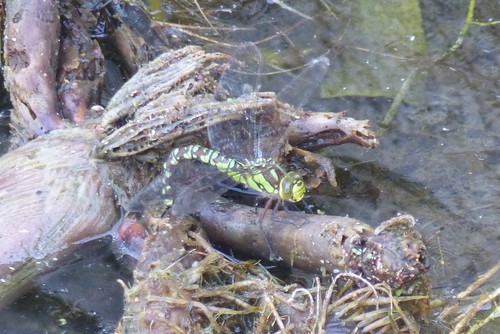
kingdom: Animalia
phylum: Arthropoda
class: Insecta
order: Odonata
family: Aeshnidae
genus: Aeshna
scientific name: Aeshna cyanea
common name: Southern hawker
